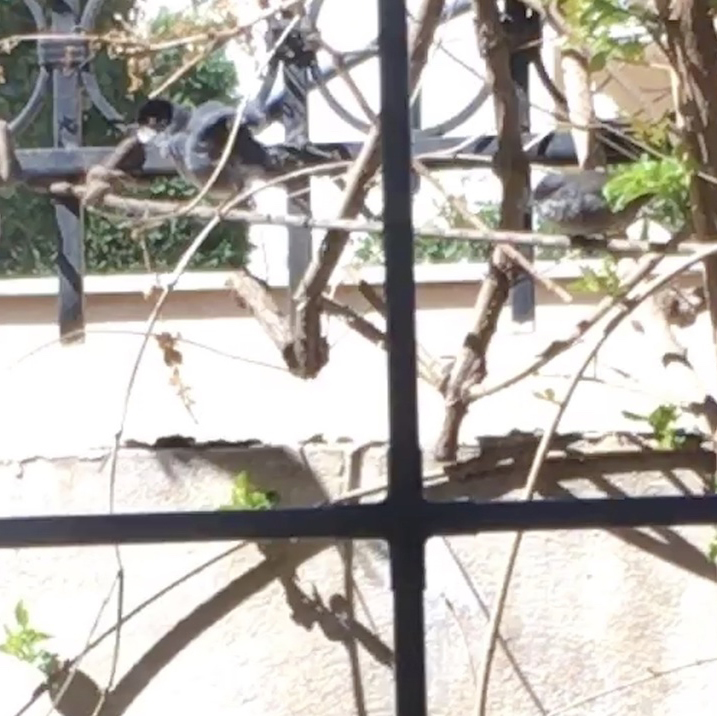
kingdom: Animalia
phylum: Chordata
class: Aves
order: Passeriformes
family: Sylviidae
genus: Curruca
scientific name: Curruca melanocephala
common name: Sardinian warbler
